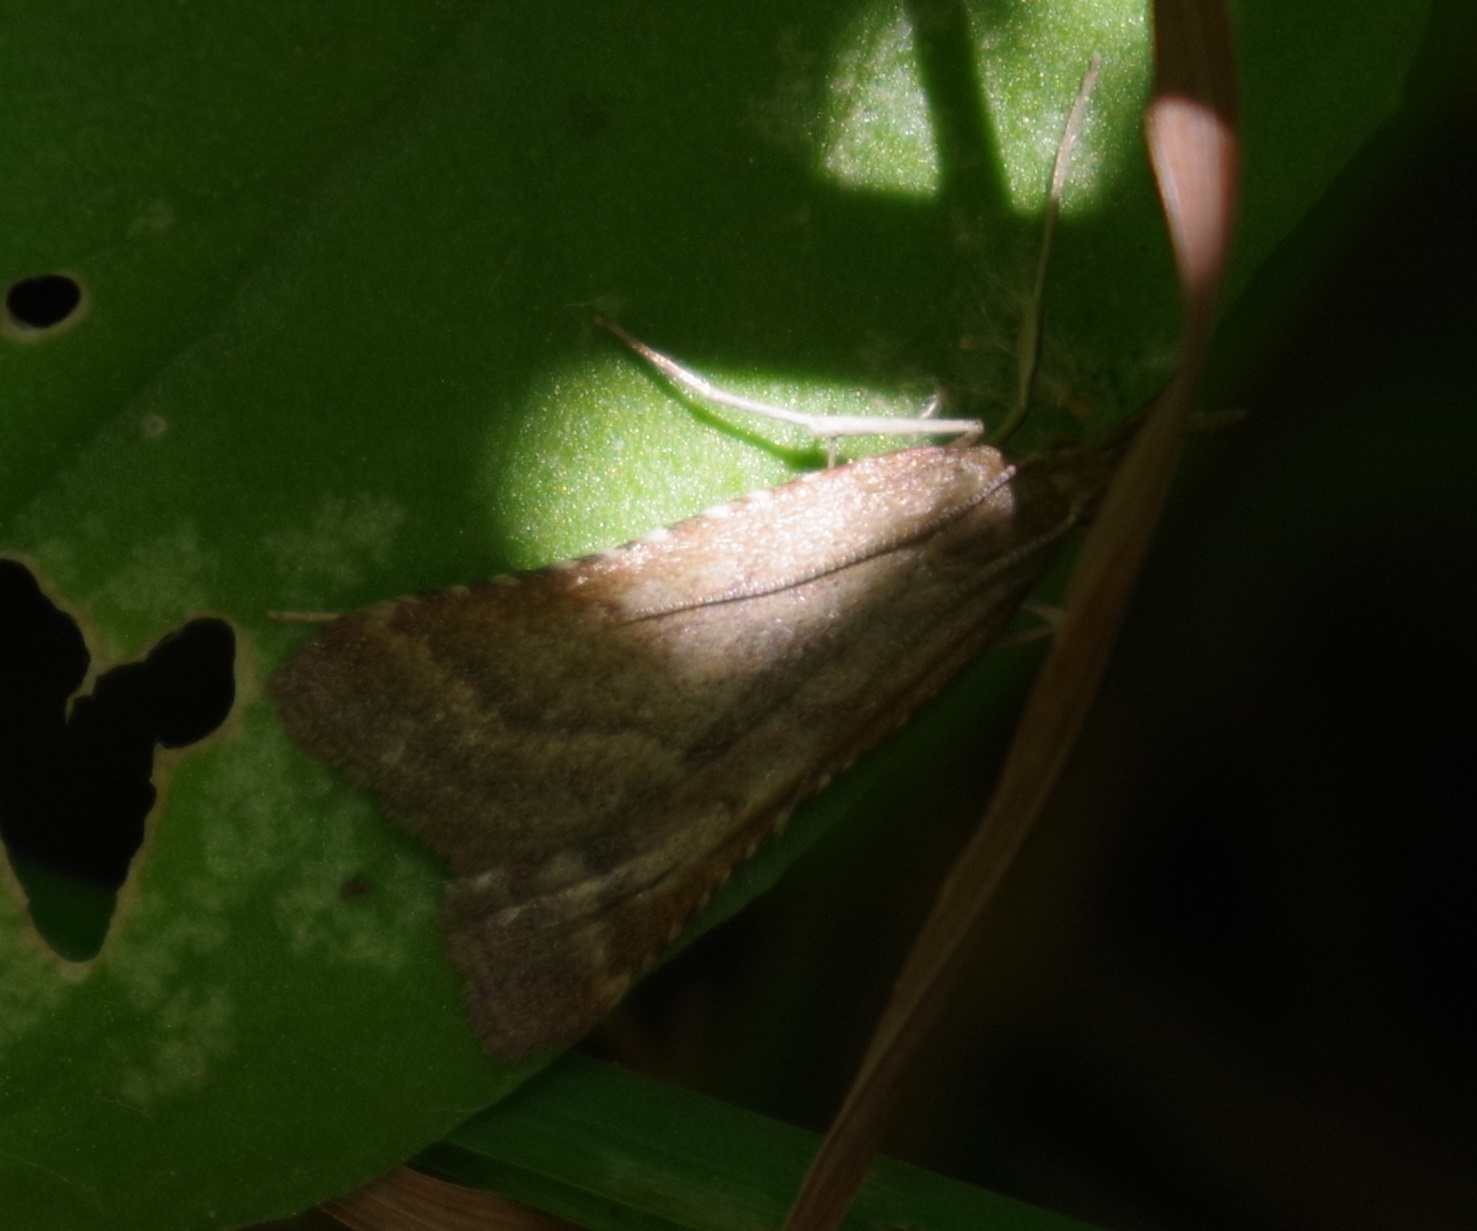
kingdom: Animalia
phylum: Arthropoda
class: Insecta
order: Lepidoptera
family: Pyralidae
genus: Synaphe
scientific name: Synaphe punctalis
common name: Long-legged tabby
